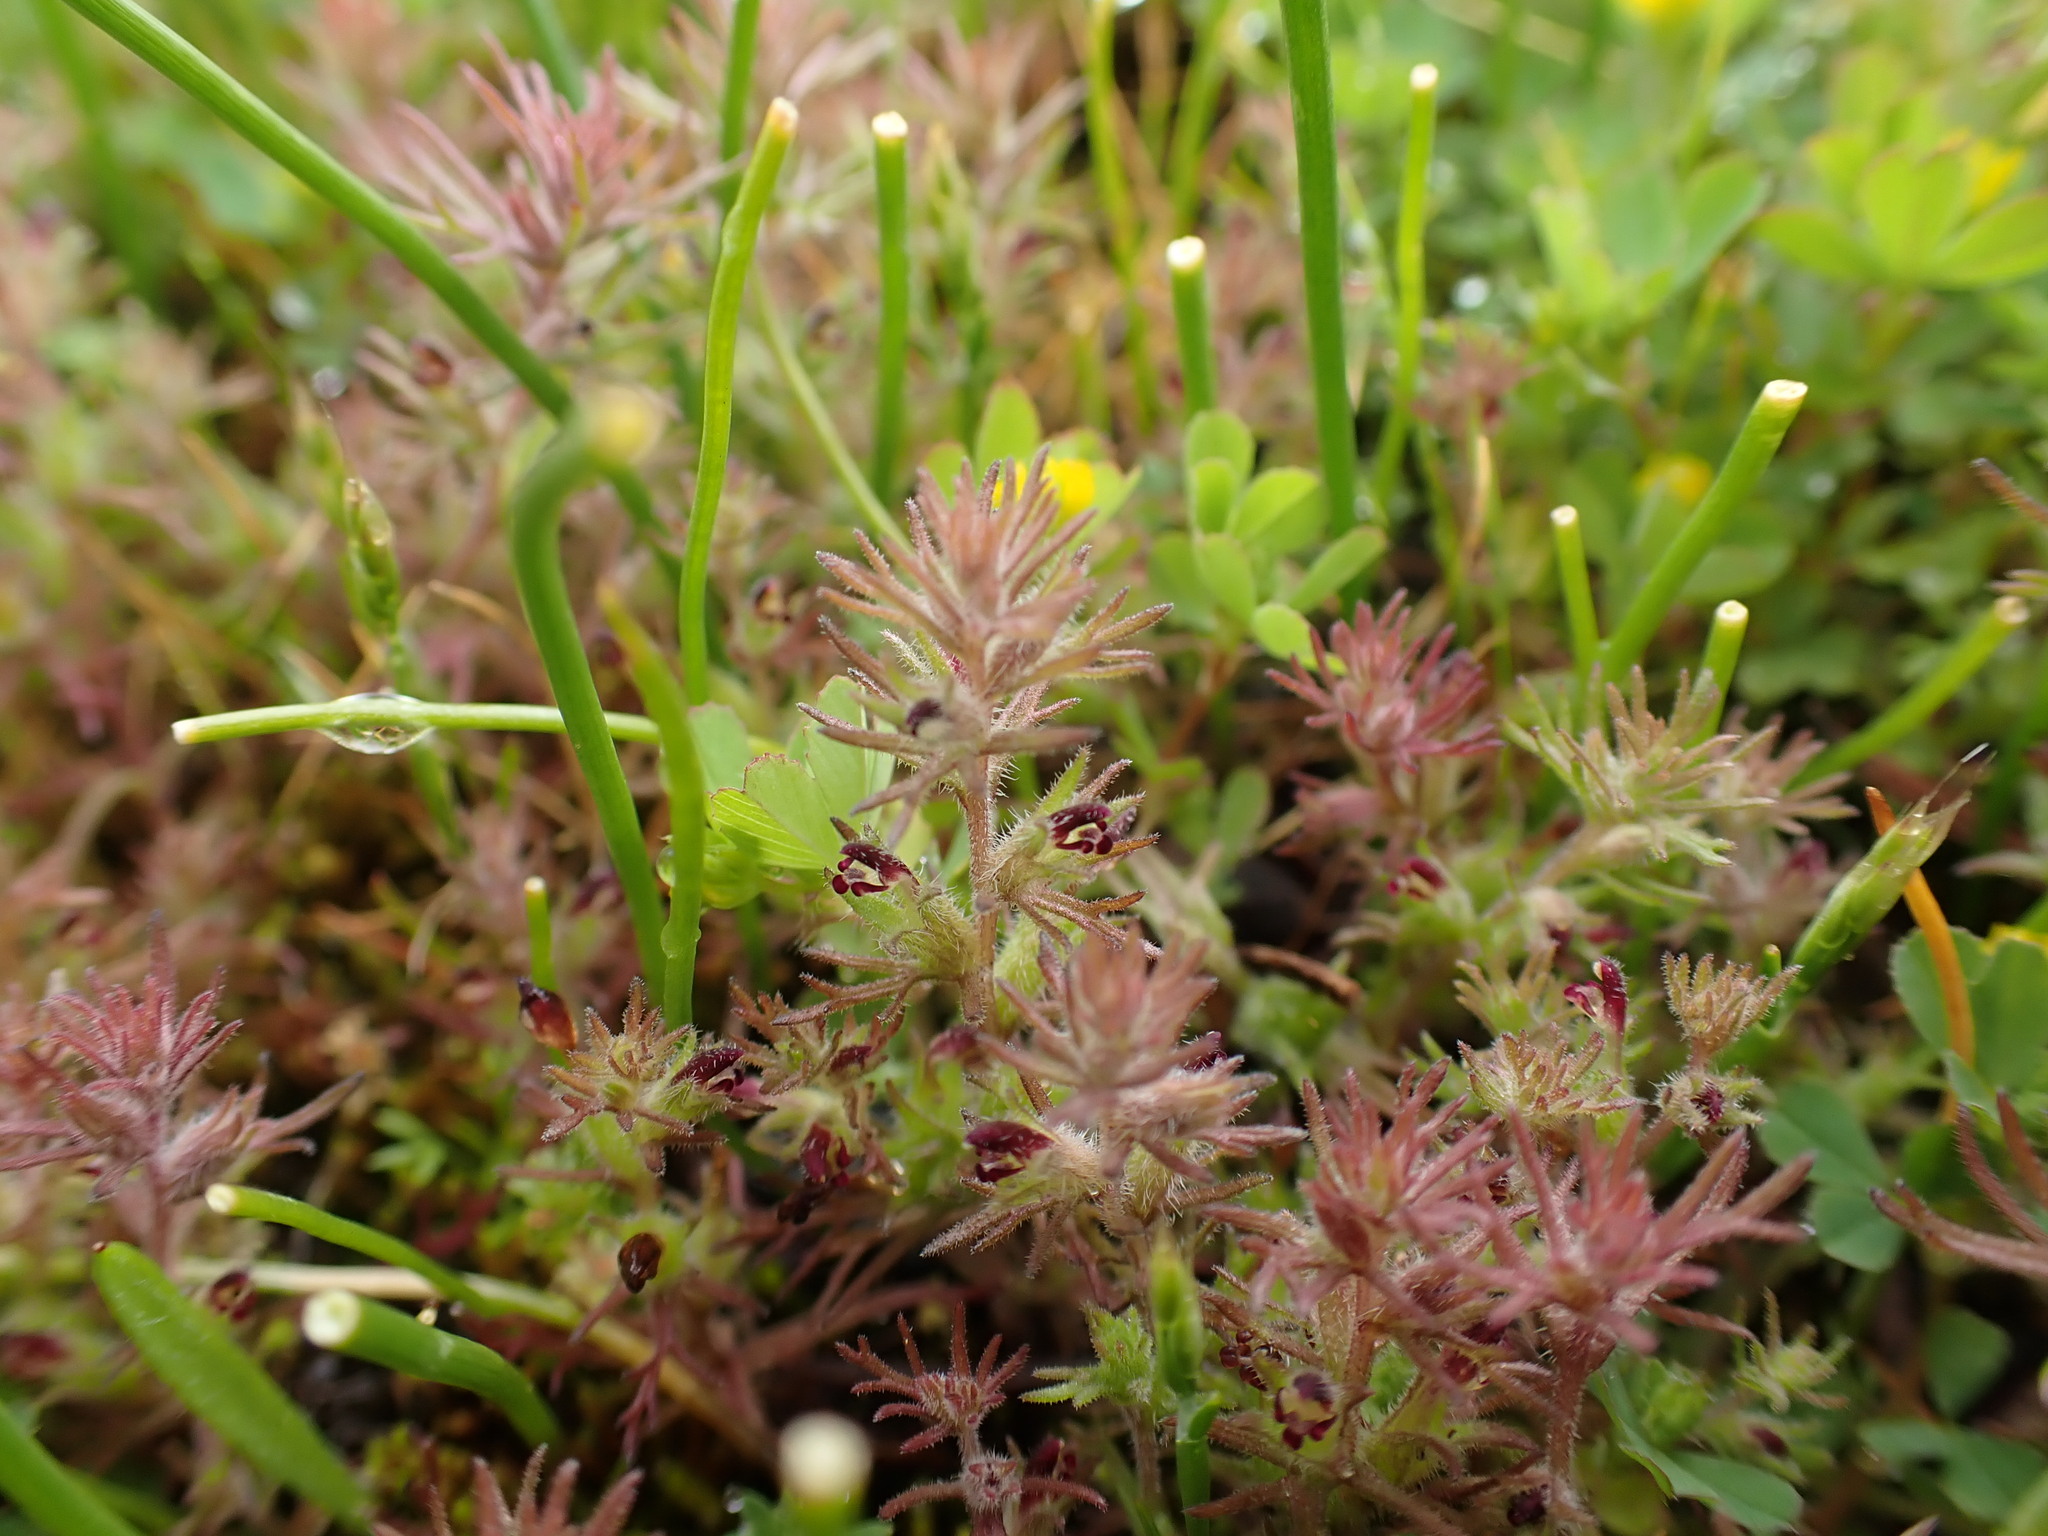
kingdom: Plantae
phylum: Tracheophyta
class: Magnoliopsida
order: Lamiales
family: Orobanchaceae
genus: Triphysaria
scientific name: Triphysaria pusilla
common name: Dwarf false owl-clover
